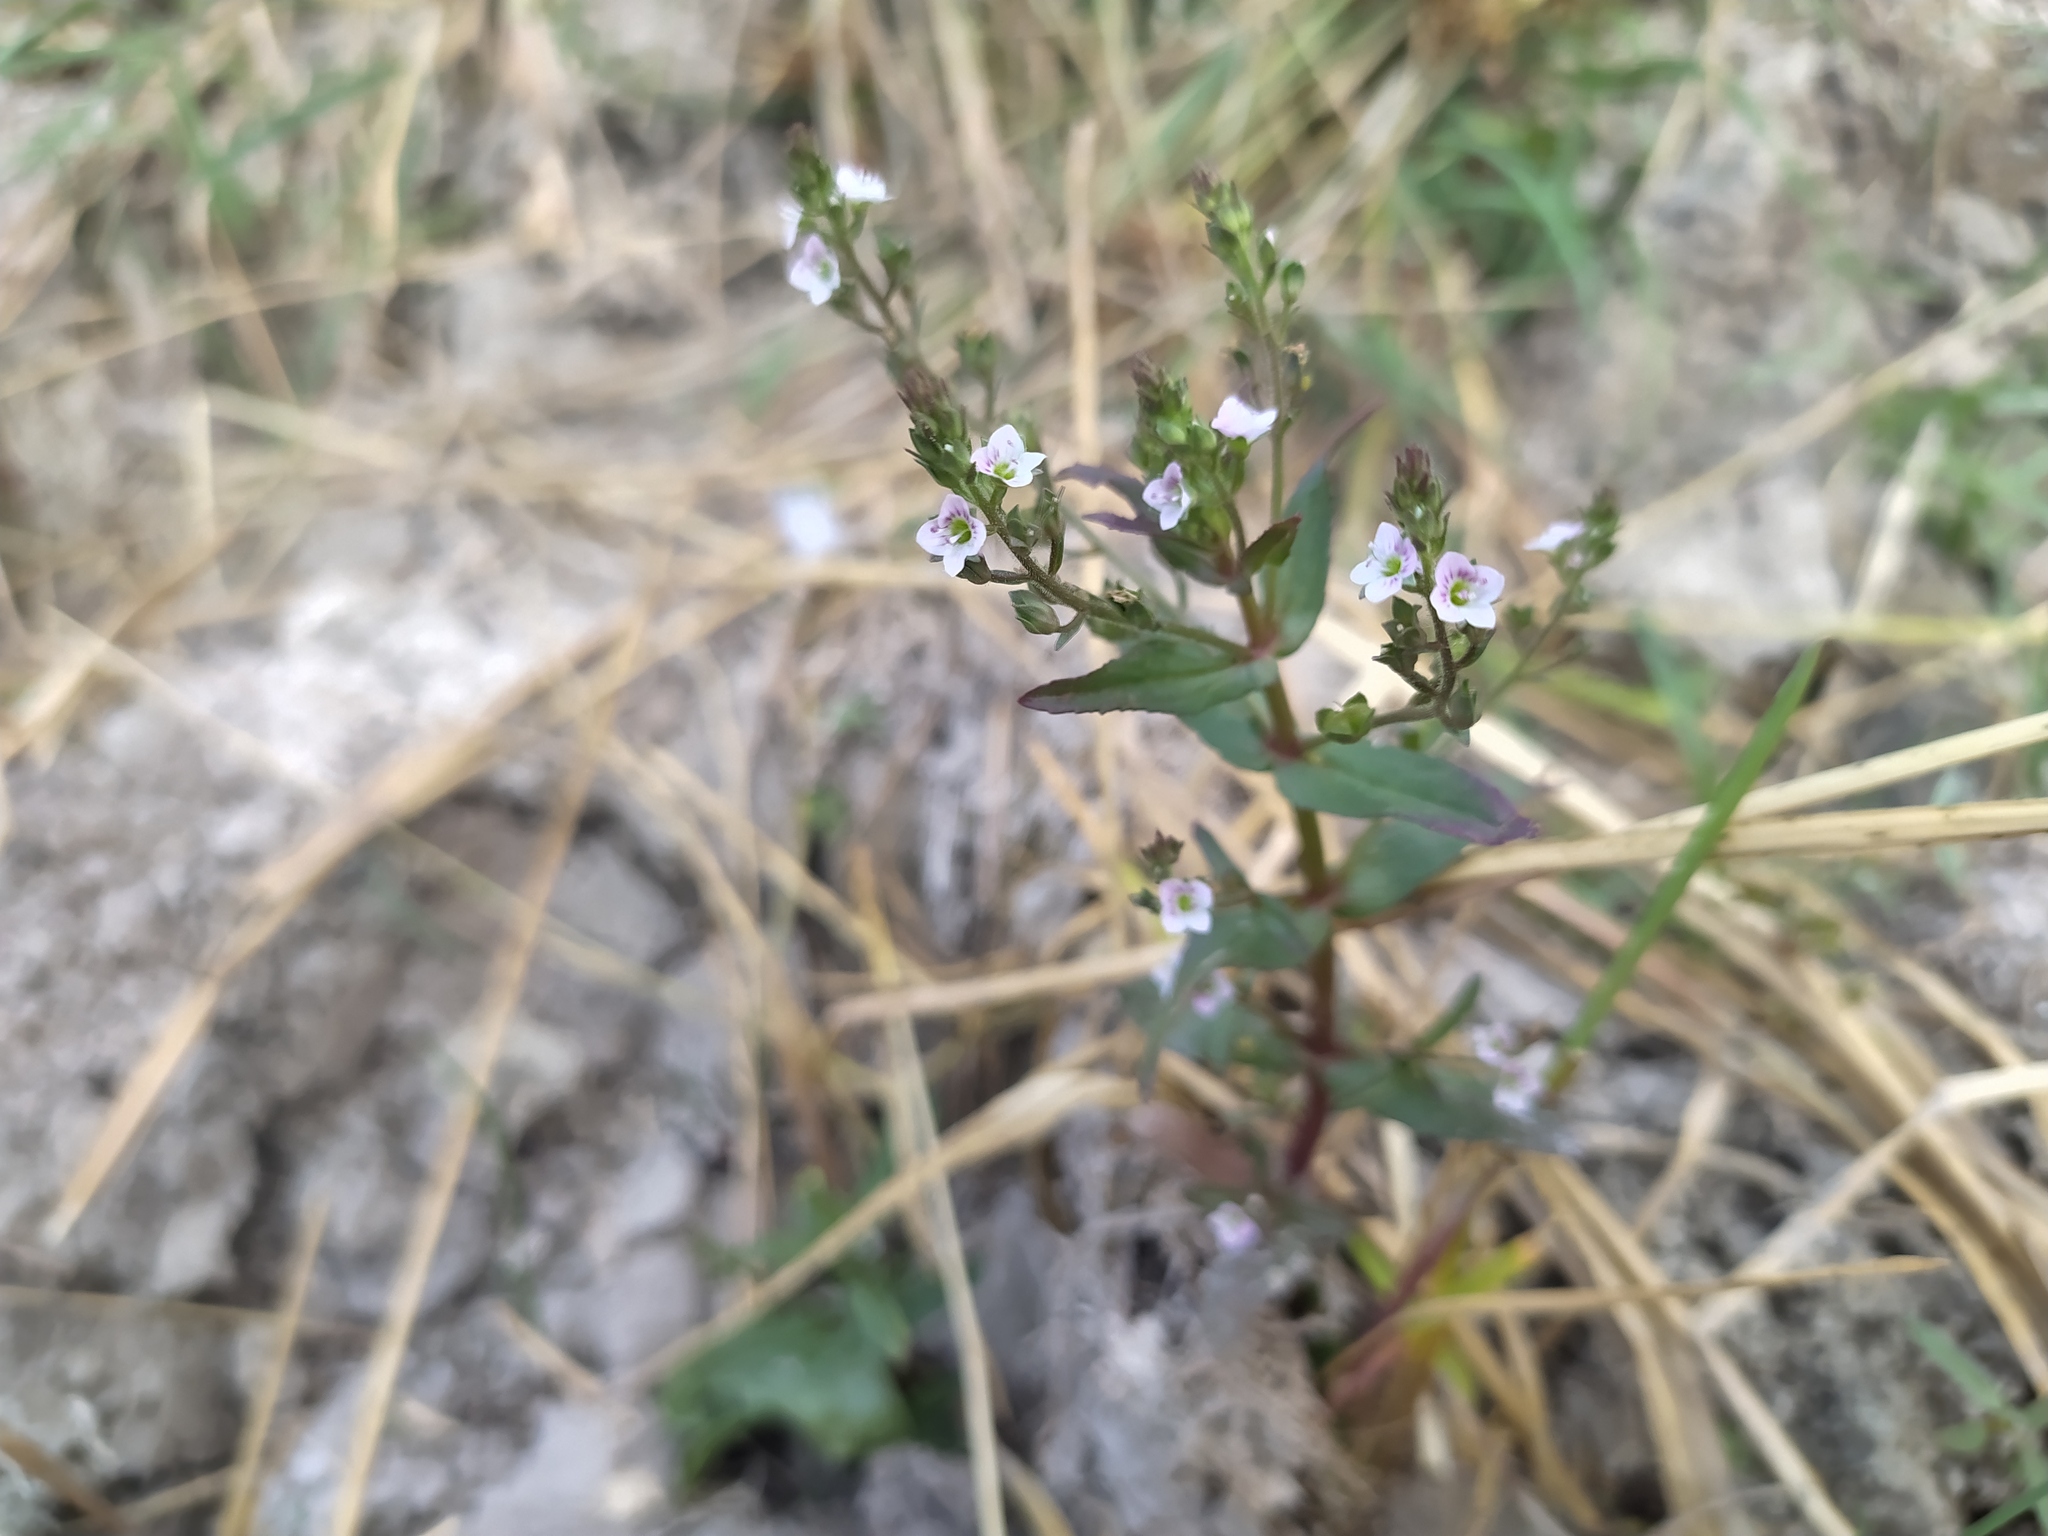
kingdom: Plantae
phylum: Tracheophyta
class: Magnoliopsida
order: Lamiales
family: Plantaginaceae
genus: Veronica
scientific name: Veronica catenata
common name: Pink water-speedwell
